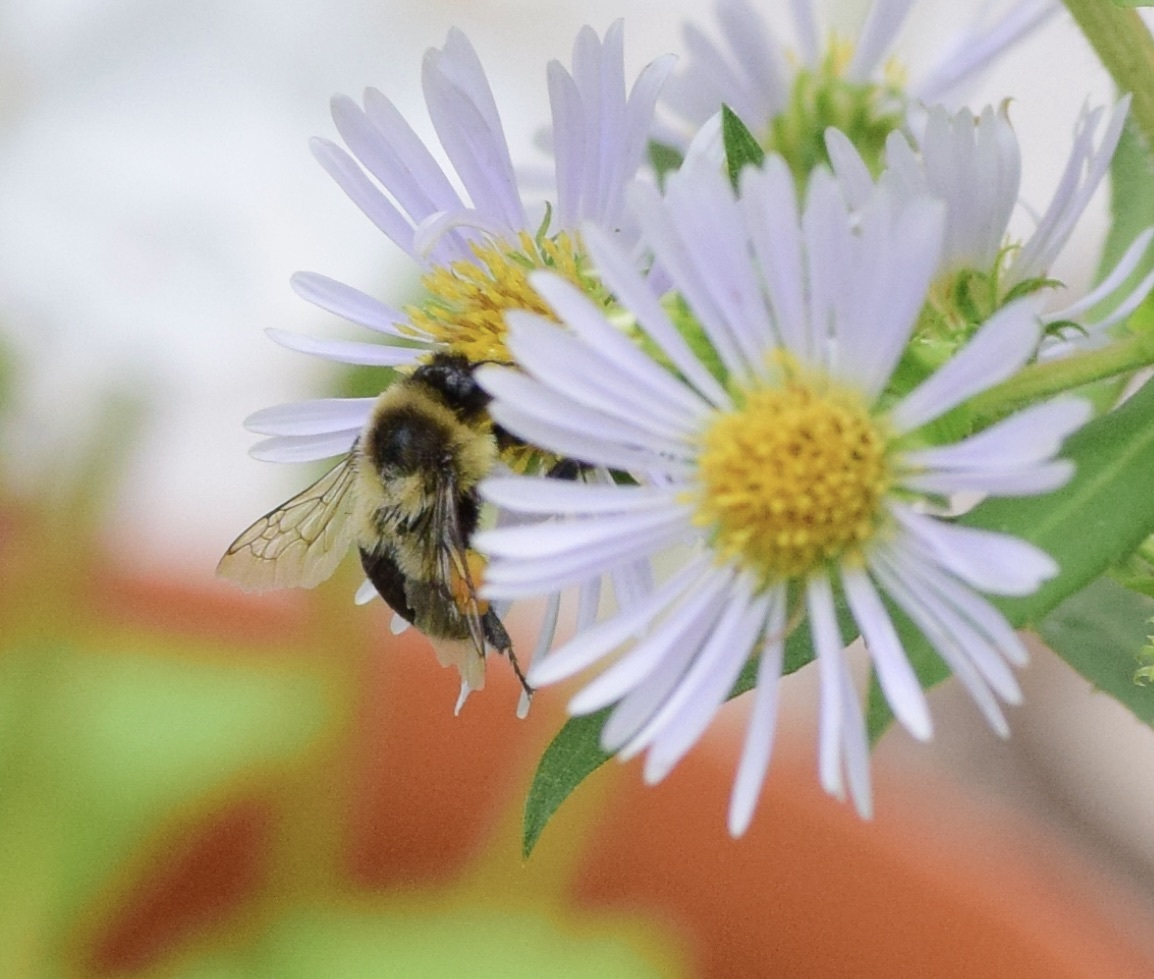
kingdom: Animalia
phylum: Arthropoda
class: Insecta
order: Hymenoptera
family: Apidae
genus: Bombus
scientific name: Bombus impatiens
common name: Common eastern bumble bee
